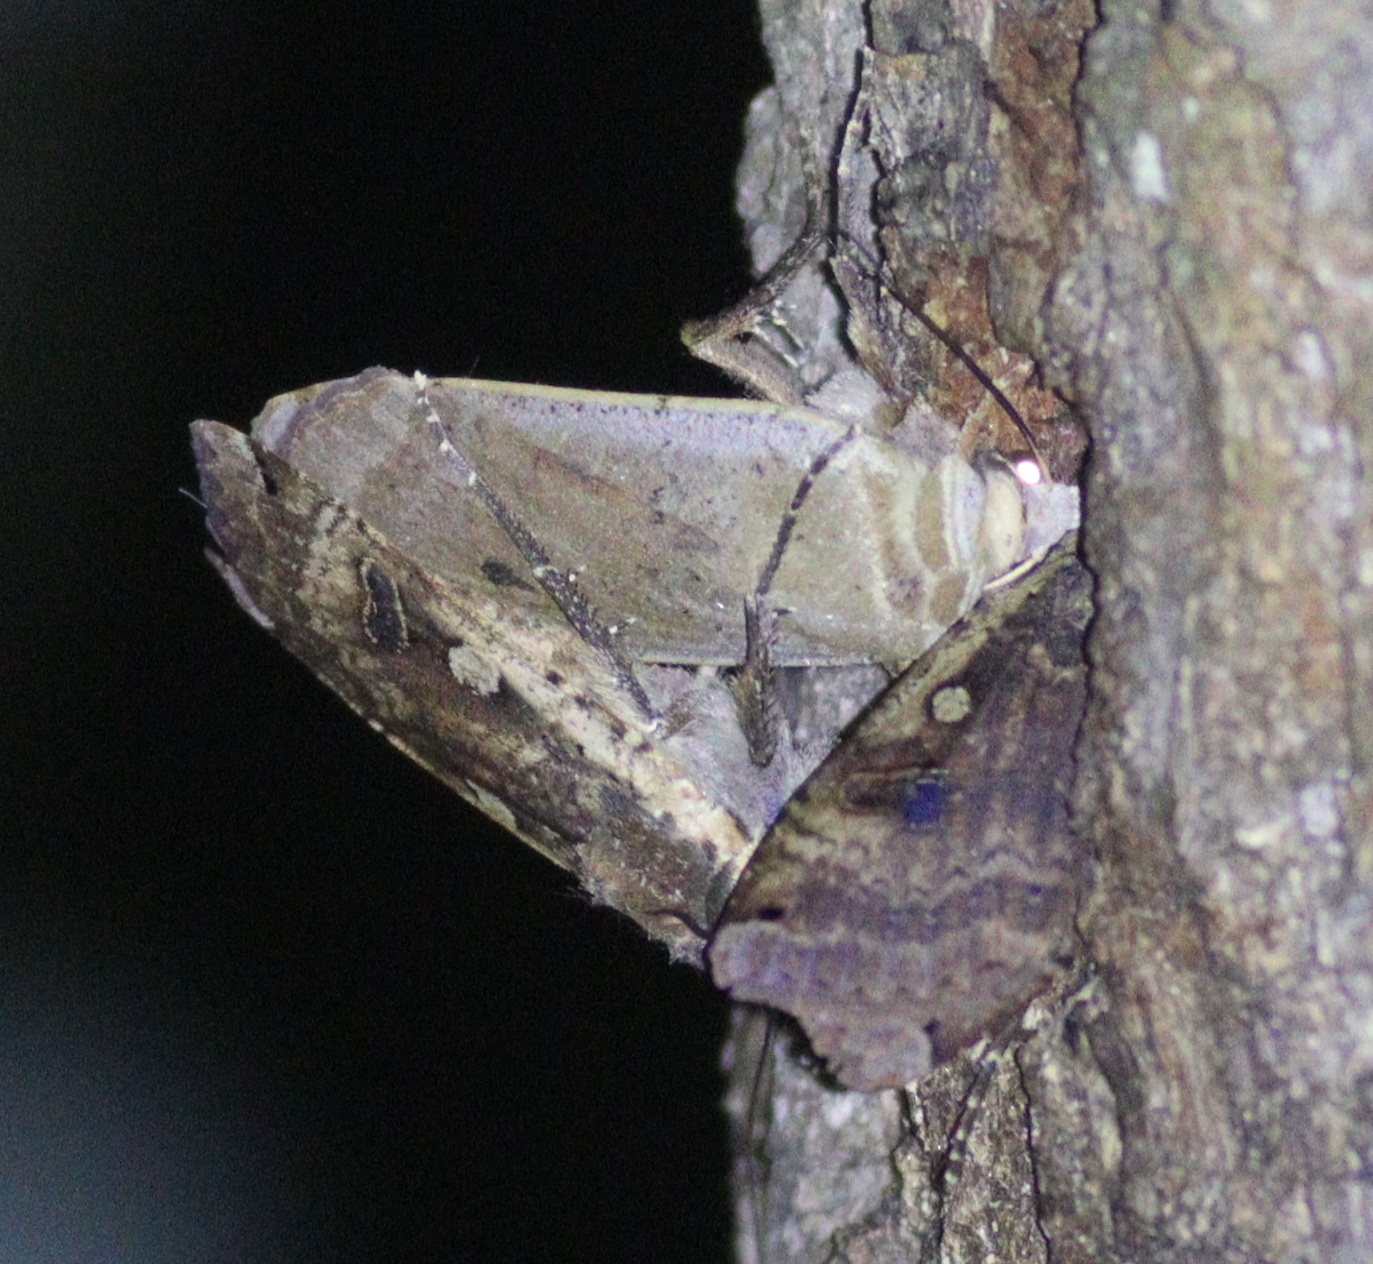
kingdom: Animalia
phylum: Arthropoda
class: Insecta
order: Lepidoptera
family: Noctuidae
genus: Noctua
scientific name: Noctua pronuba
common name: Large yellow underwing
